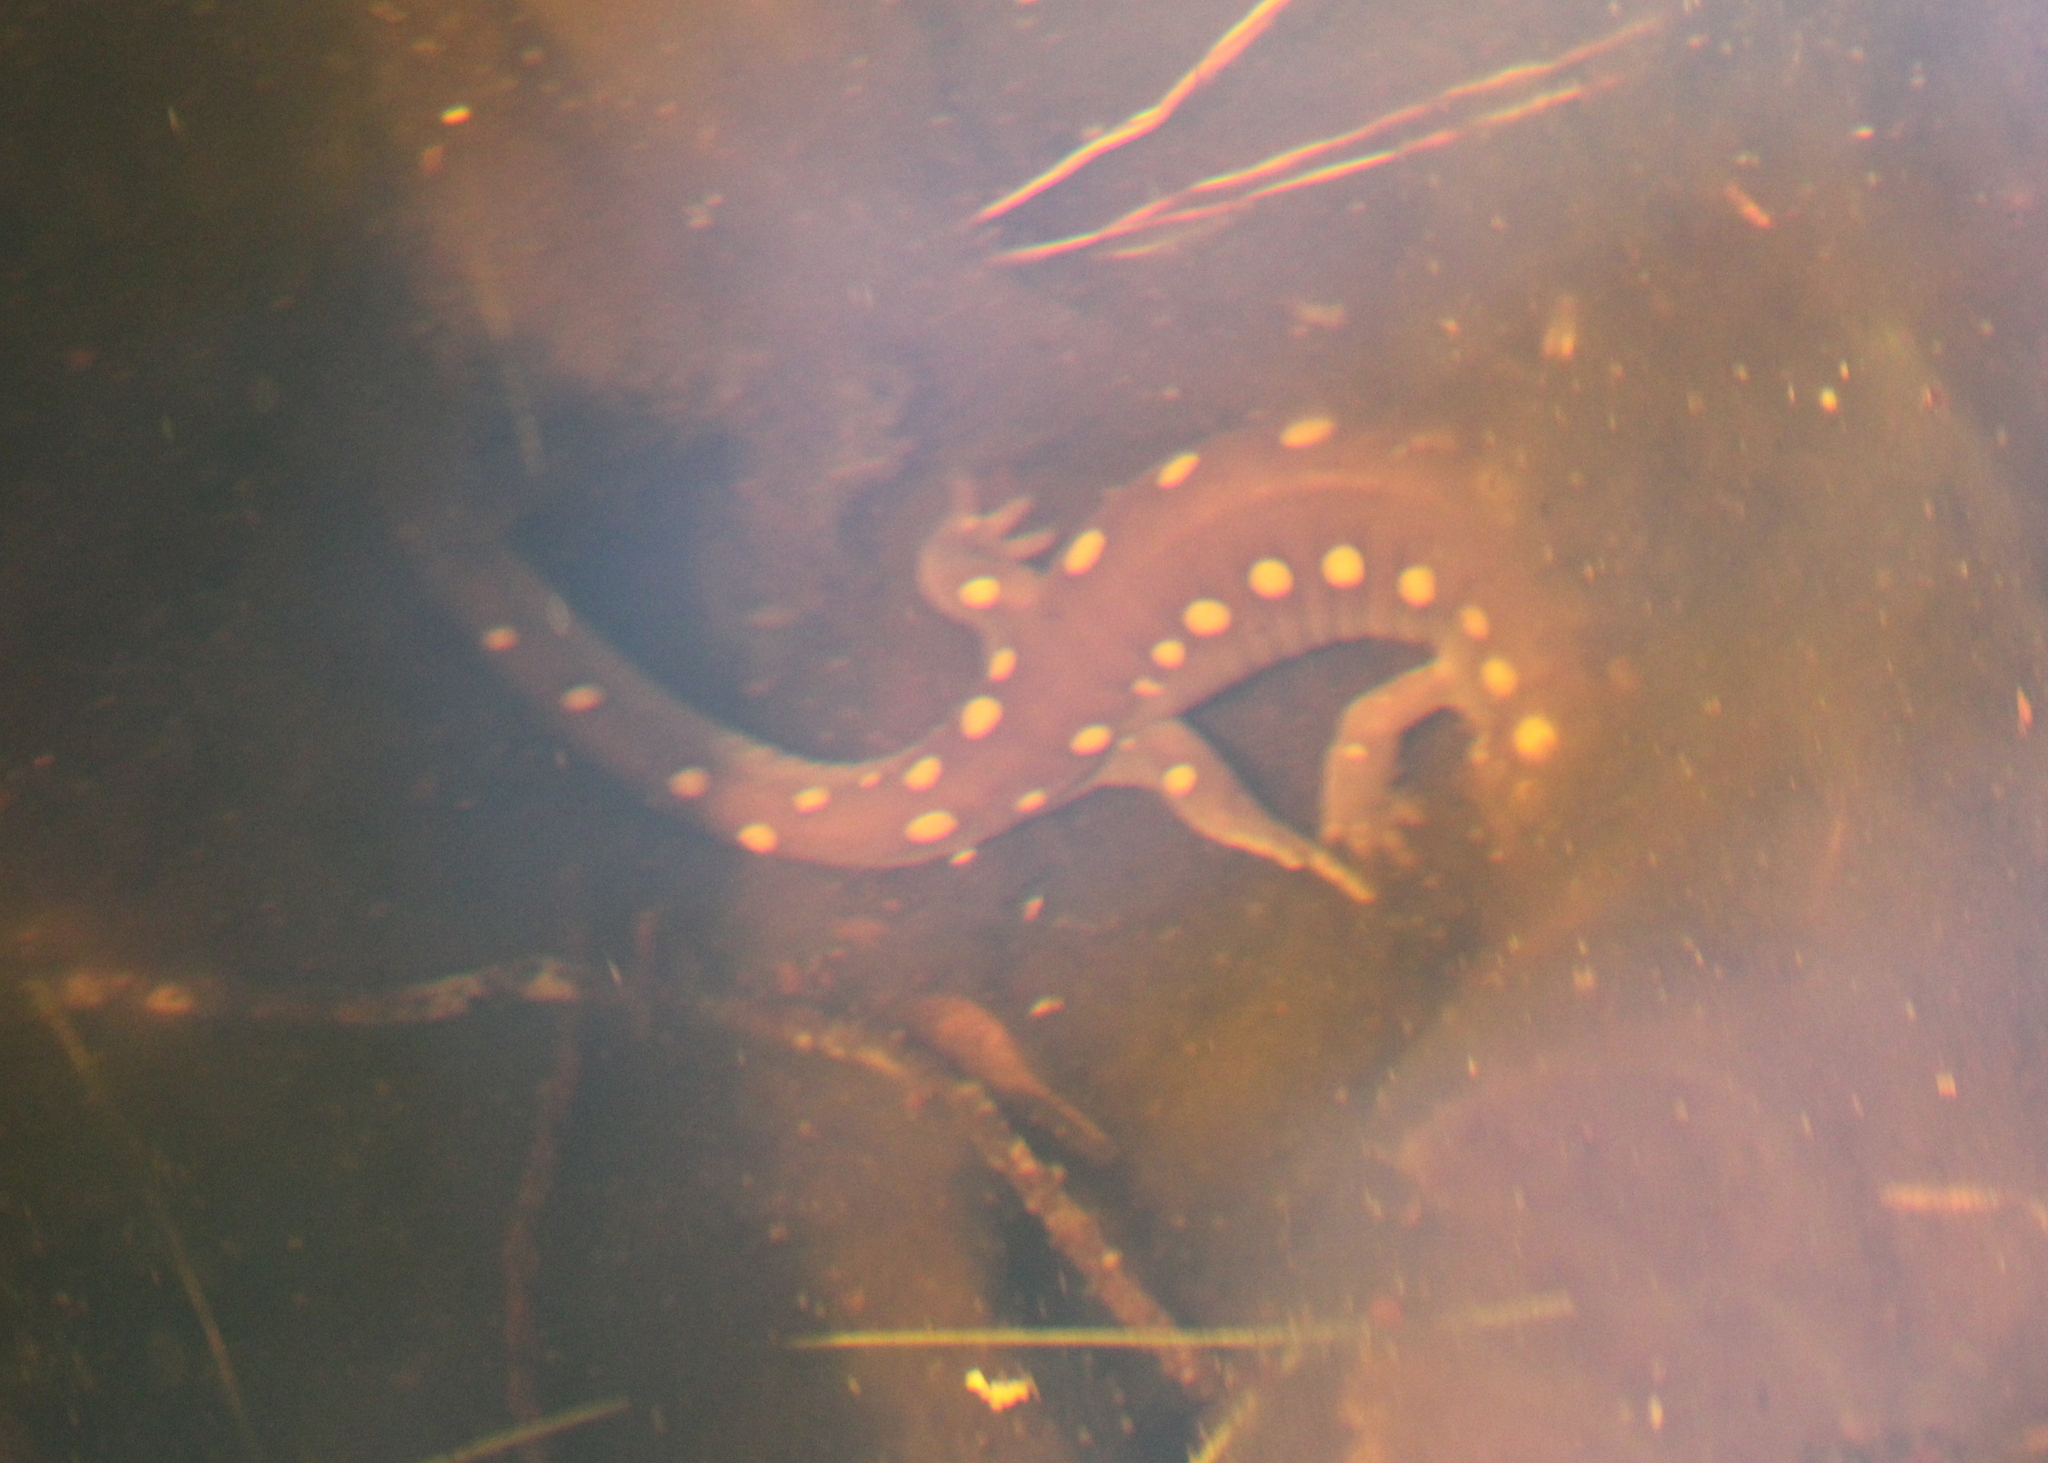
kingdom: Animalia
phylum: Chordata
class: Amphibia
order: Caudata
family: Ambystomatidae
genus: Ambystoma
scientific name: Ambystoma maculatum
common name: Spotted salamander
